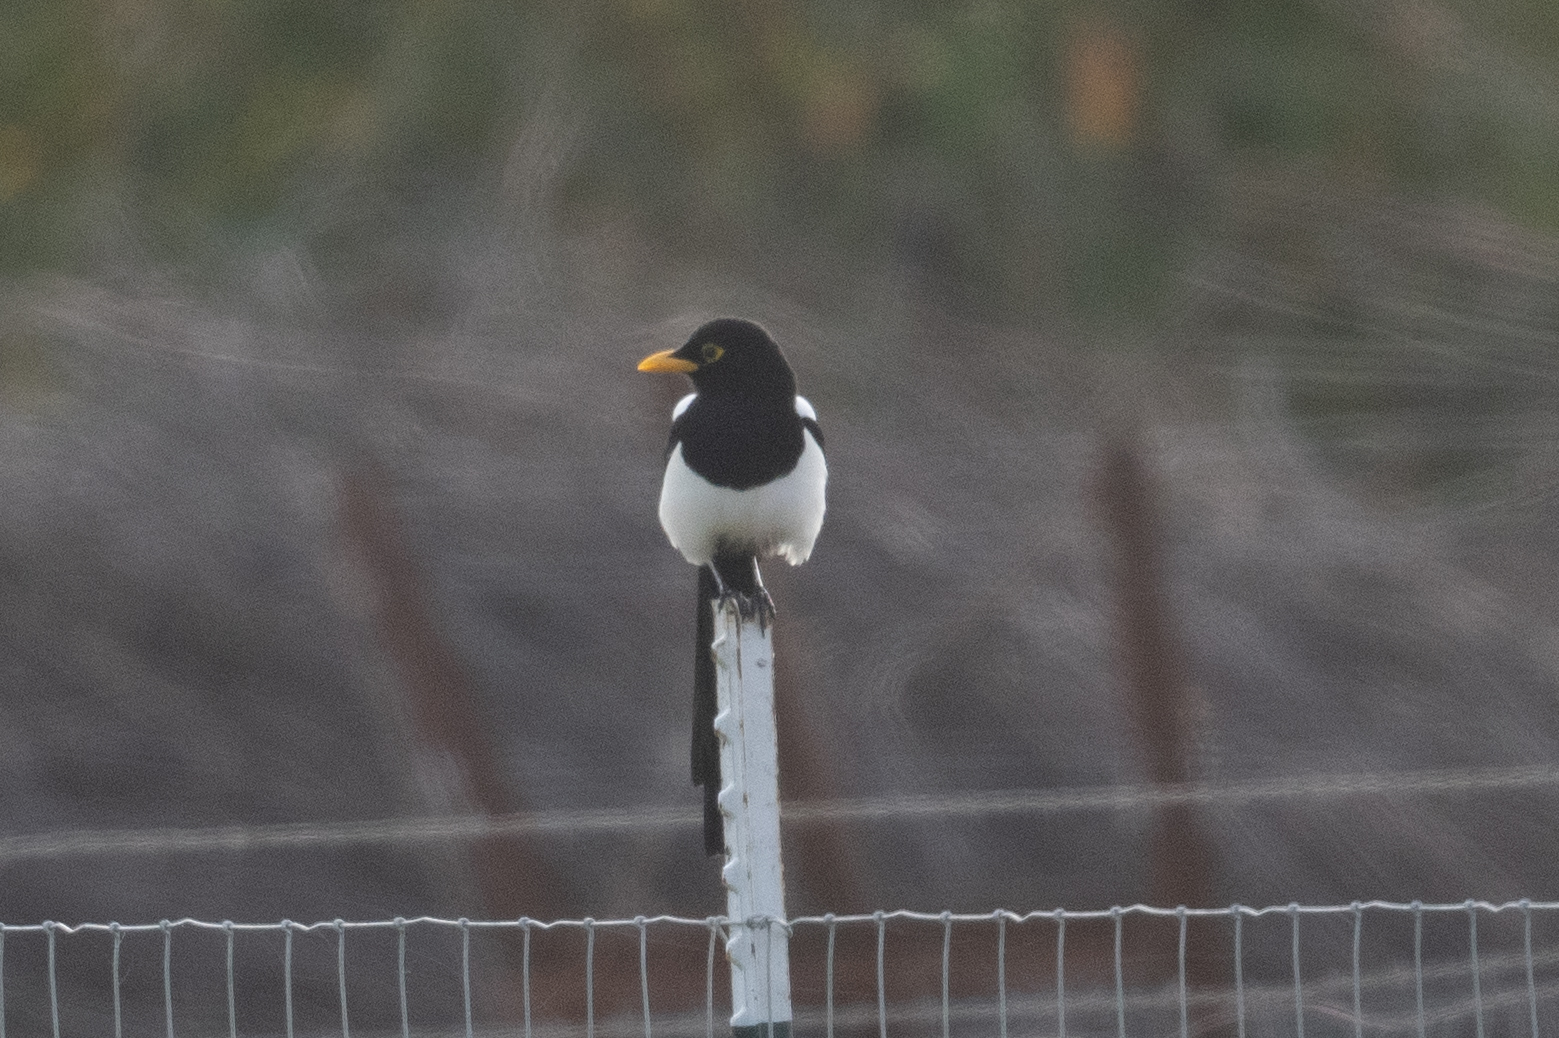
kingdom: Animalia
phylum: Chordata
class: Aves
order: Passeriformes
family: Corvidae
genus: Pica
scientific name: Pica nuttalli
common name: Yellow-billed magpie
